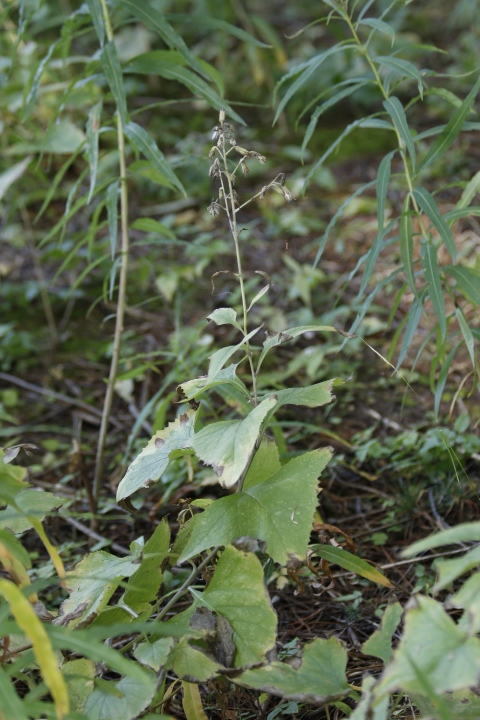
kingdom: Plantae
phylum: Tracheophyta
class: Magnoliopsida
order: Asterales
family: Asteraceae
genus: Parasenecio
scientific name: Parasenecio hastatus
